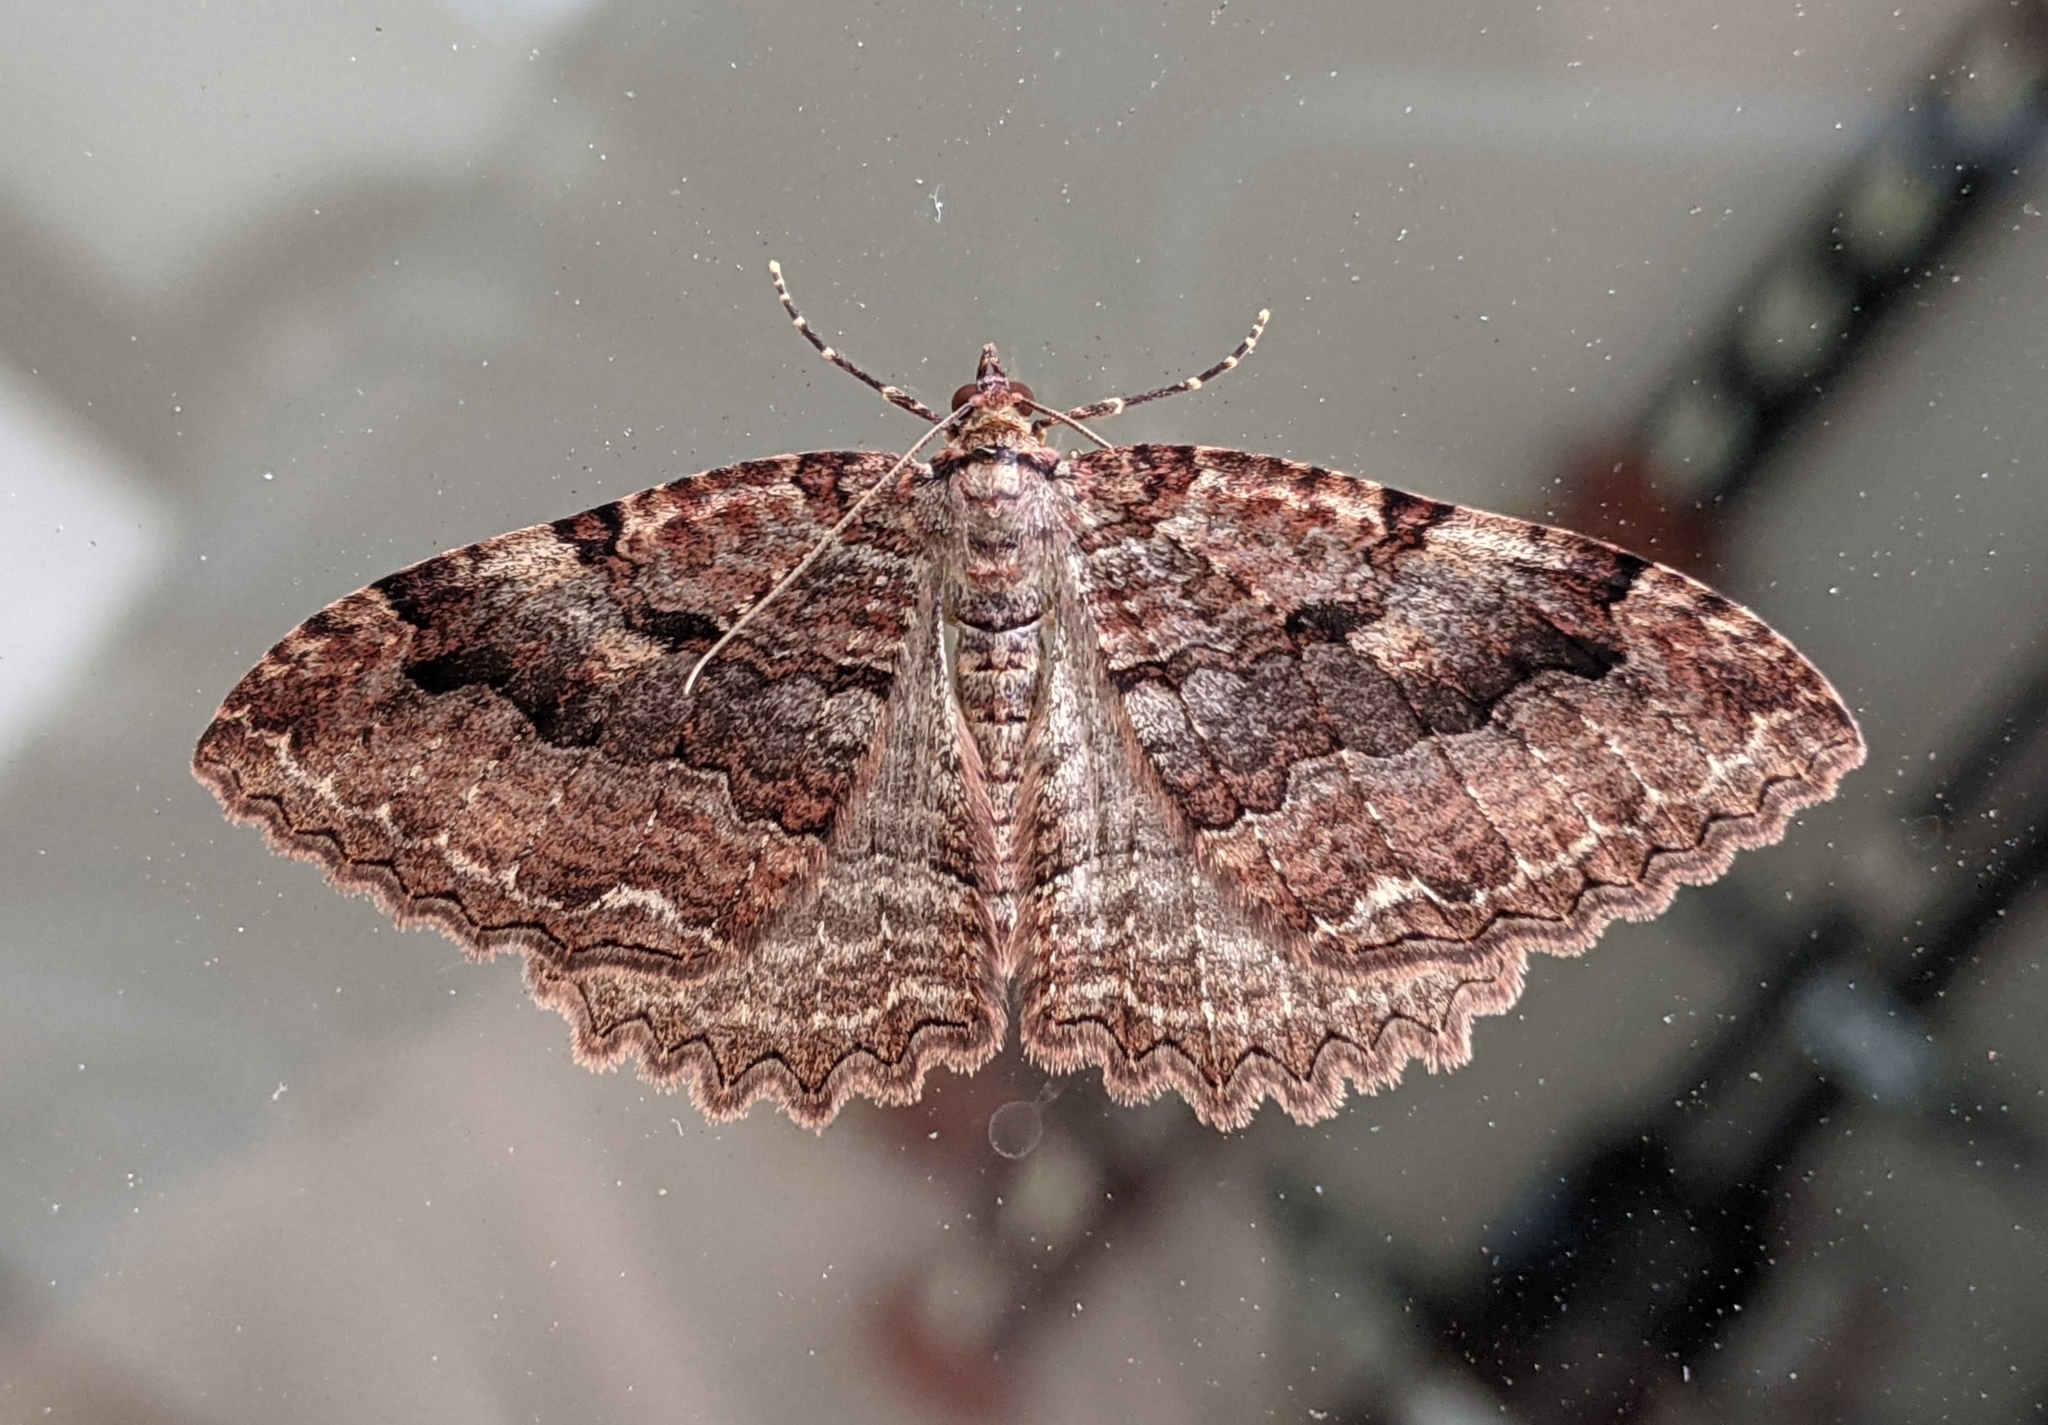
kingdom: Animalia
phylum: Arthropoda
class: Insecta
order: Lepidoptera
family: Geometridae
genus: Triphosa
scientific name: Triphosa haesitata
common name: Tissue moth
